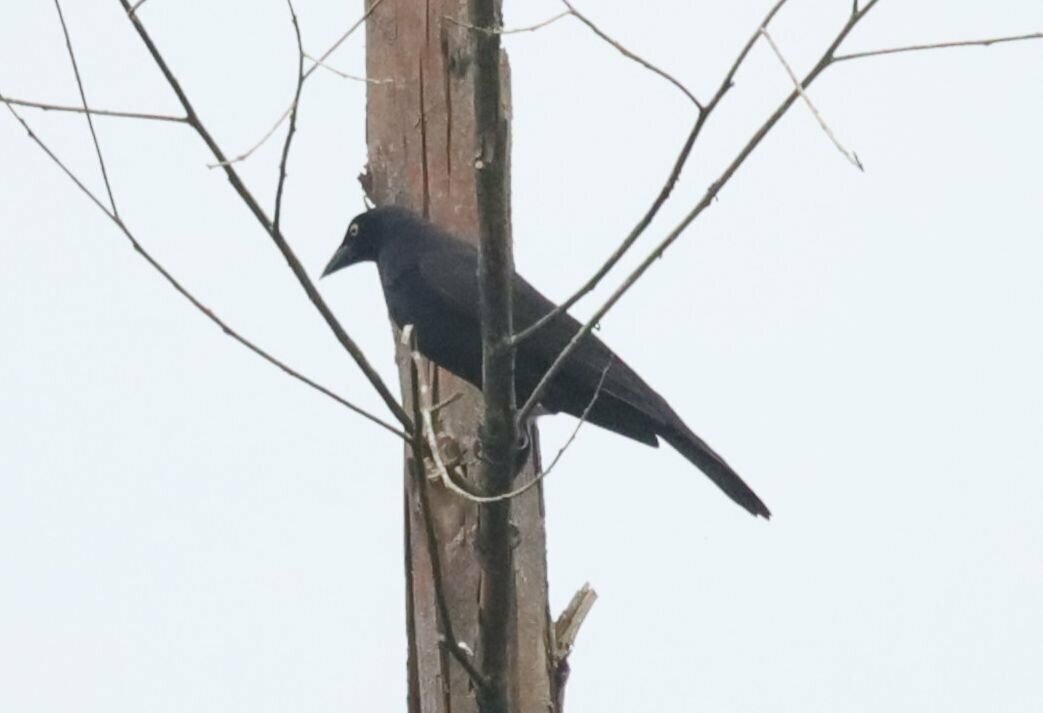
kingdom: Animalia
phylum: Chordata
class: Aves
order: Passeriformes
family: Icteridae
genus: Molothrus
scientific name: Molothrus oryzivorus
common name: Giant cowbird
